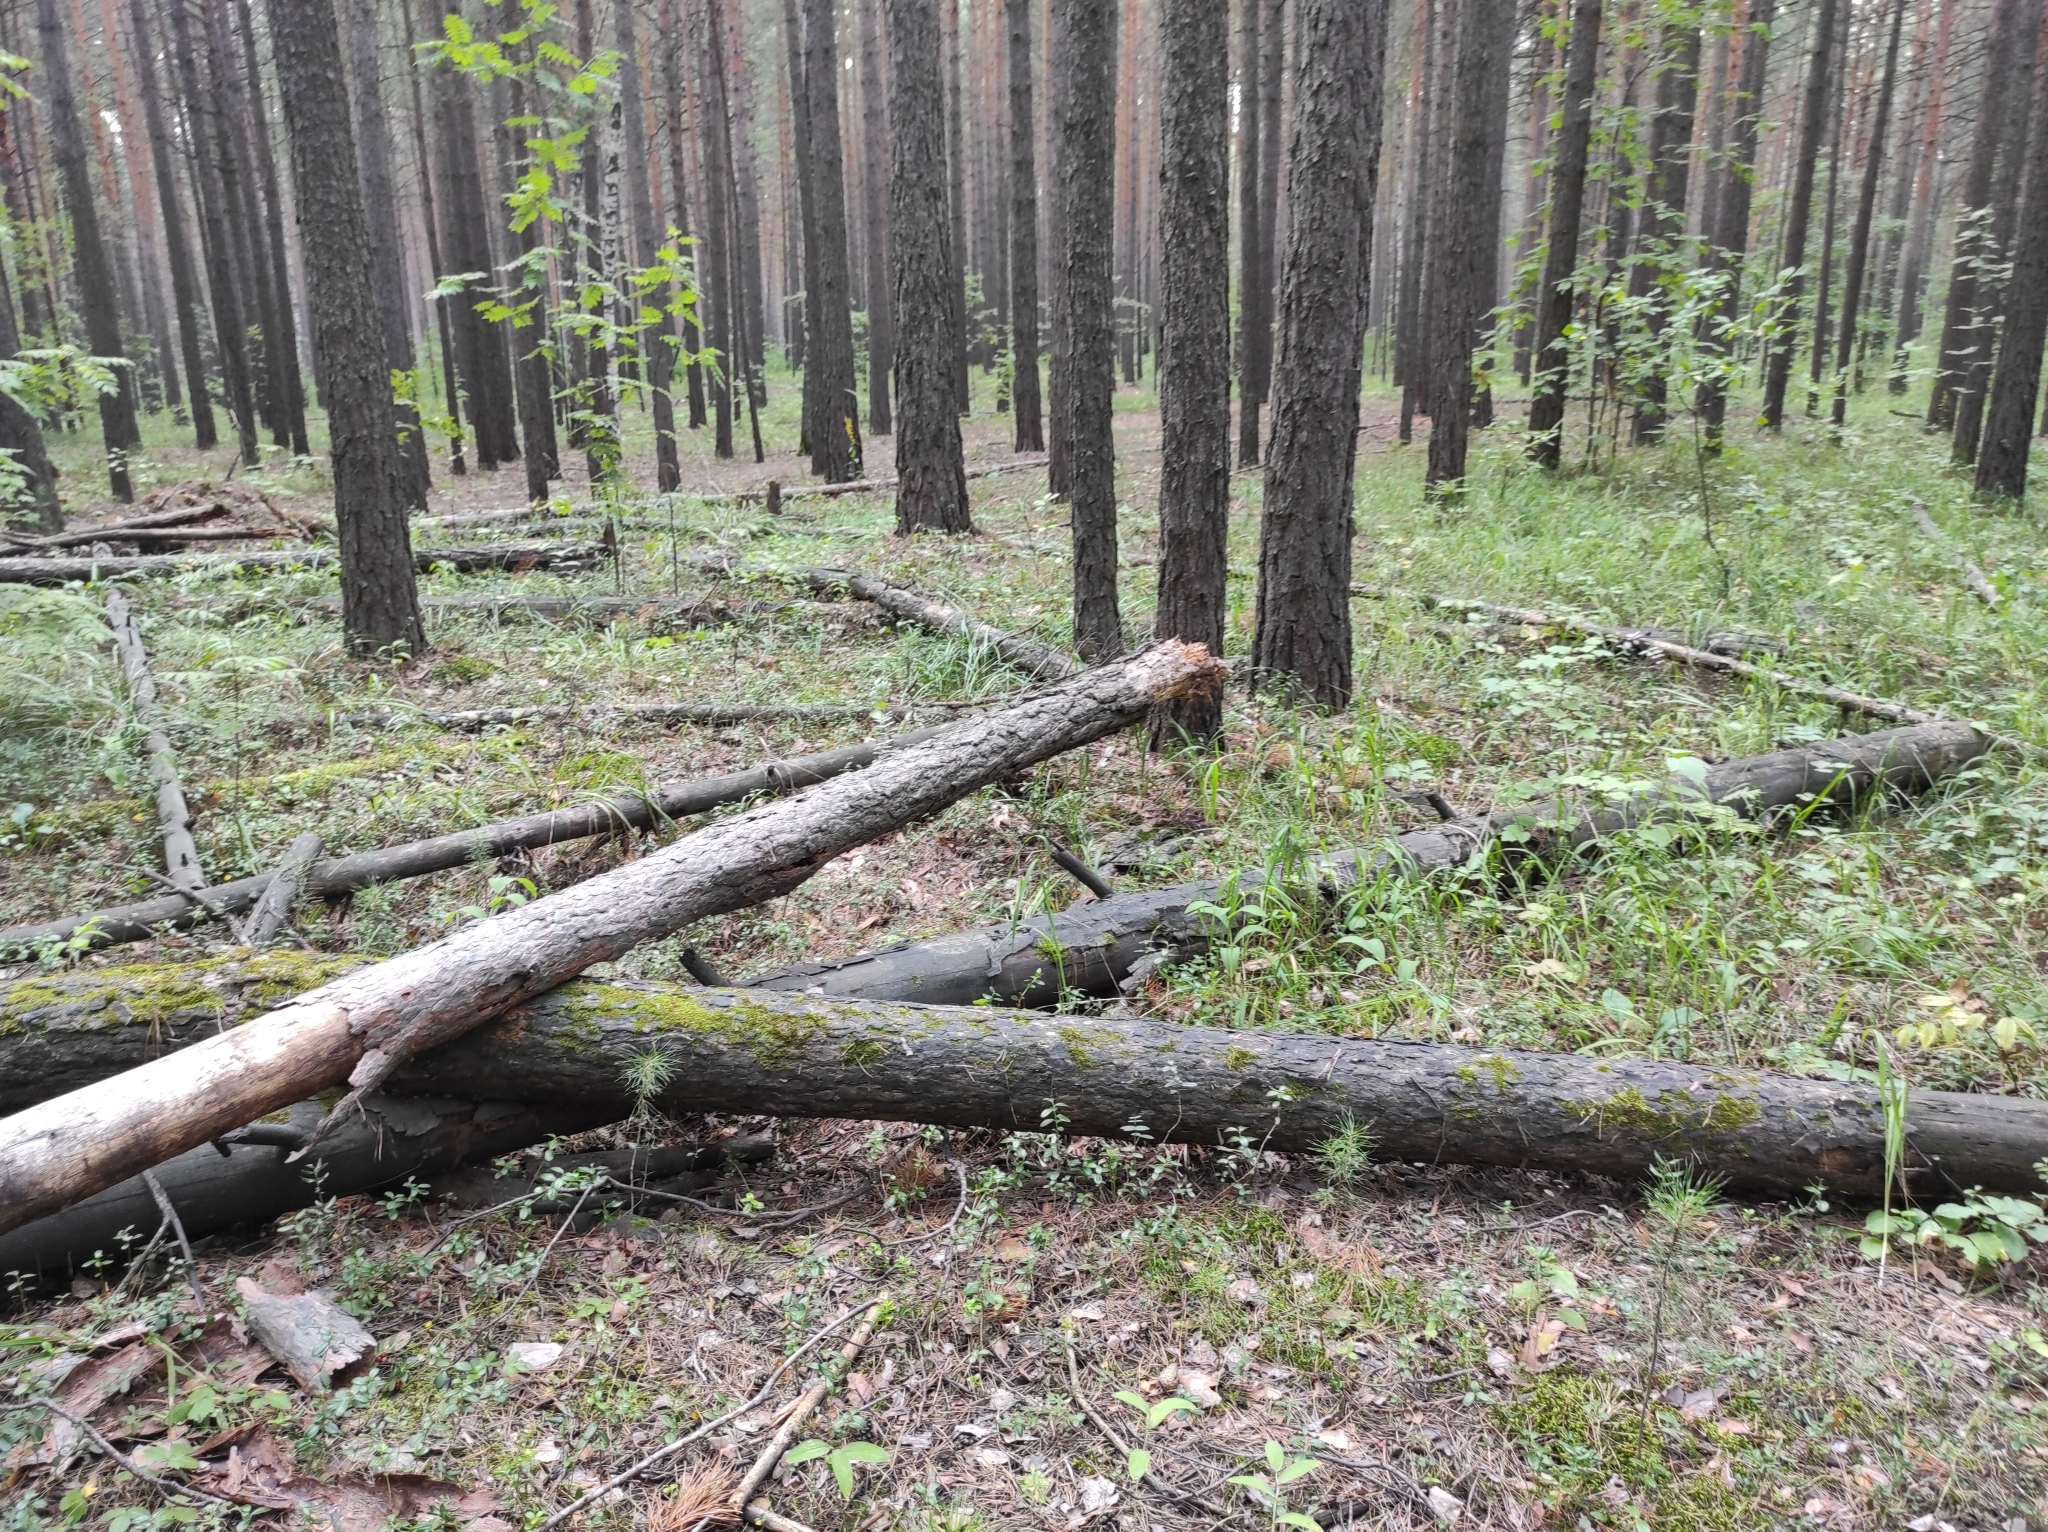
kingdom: Plantae
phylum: Tracheophyta
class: Pinopsida
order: Pinales
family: Pinaceae
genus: Pinus
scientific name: Pinus sylvestris
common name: Scots pine
